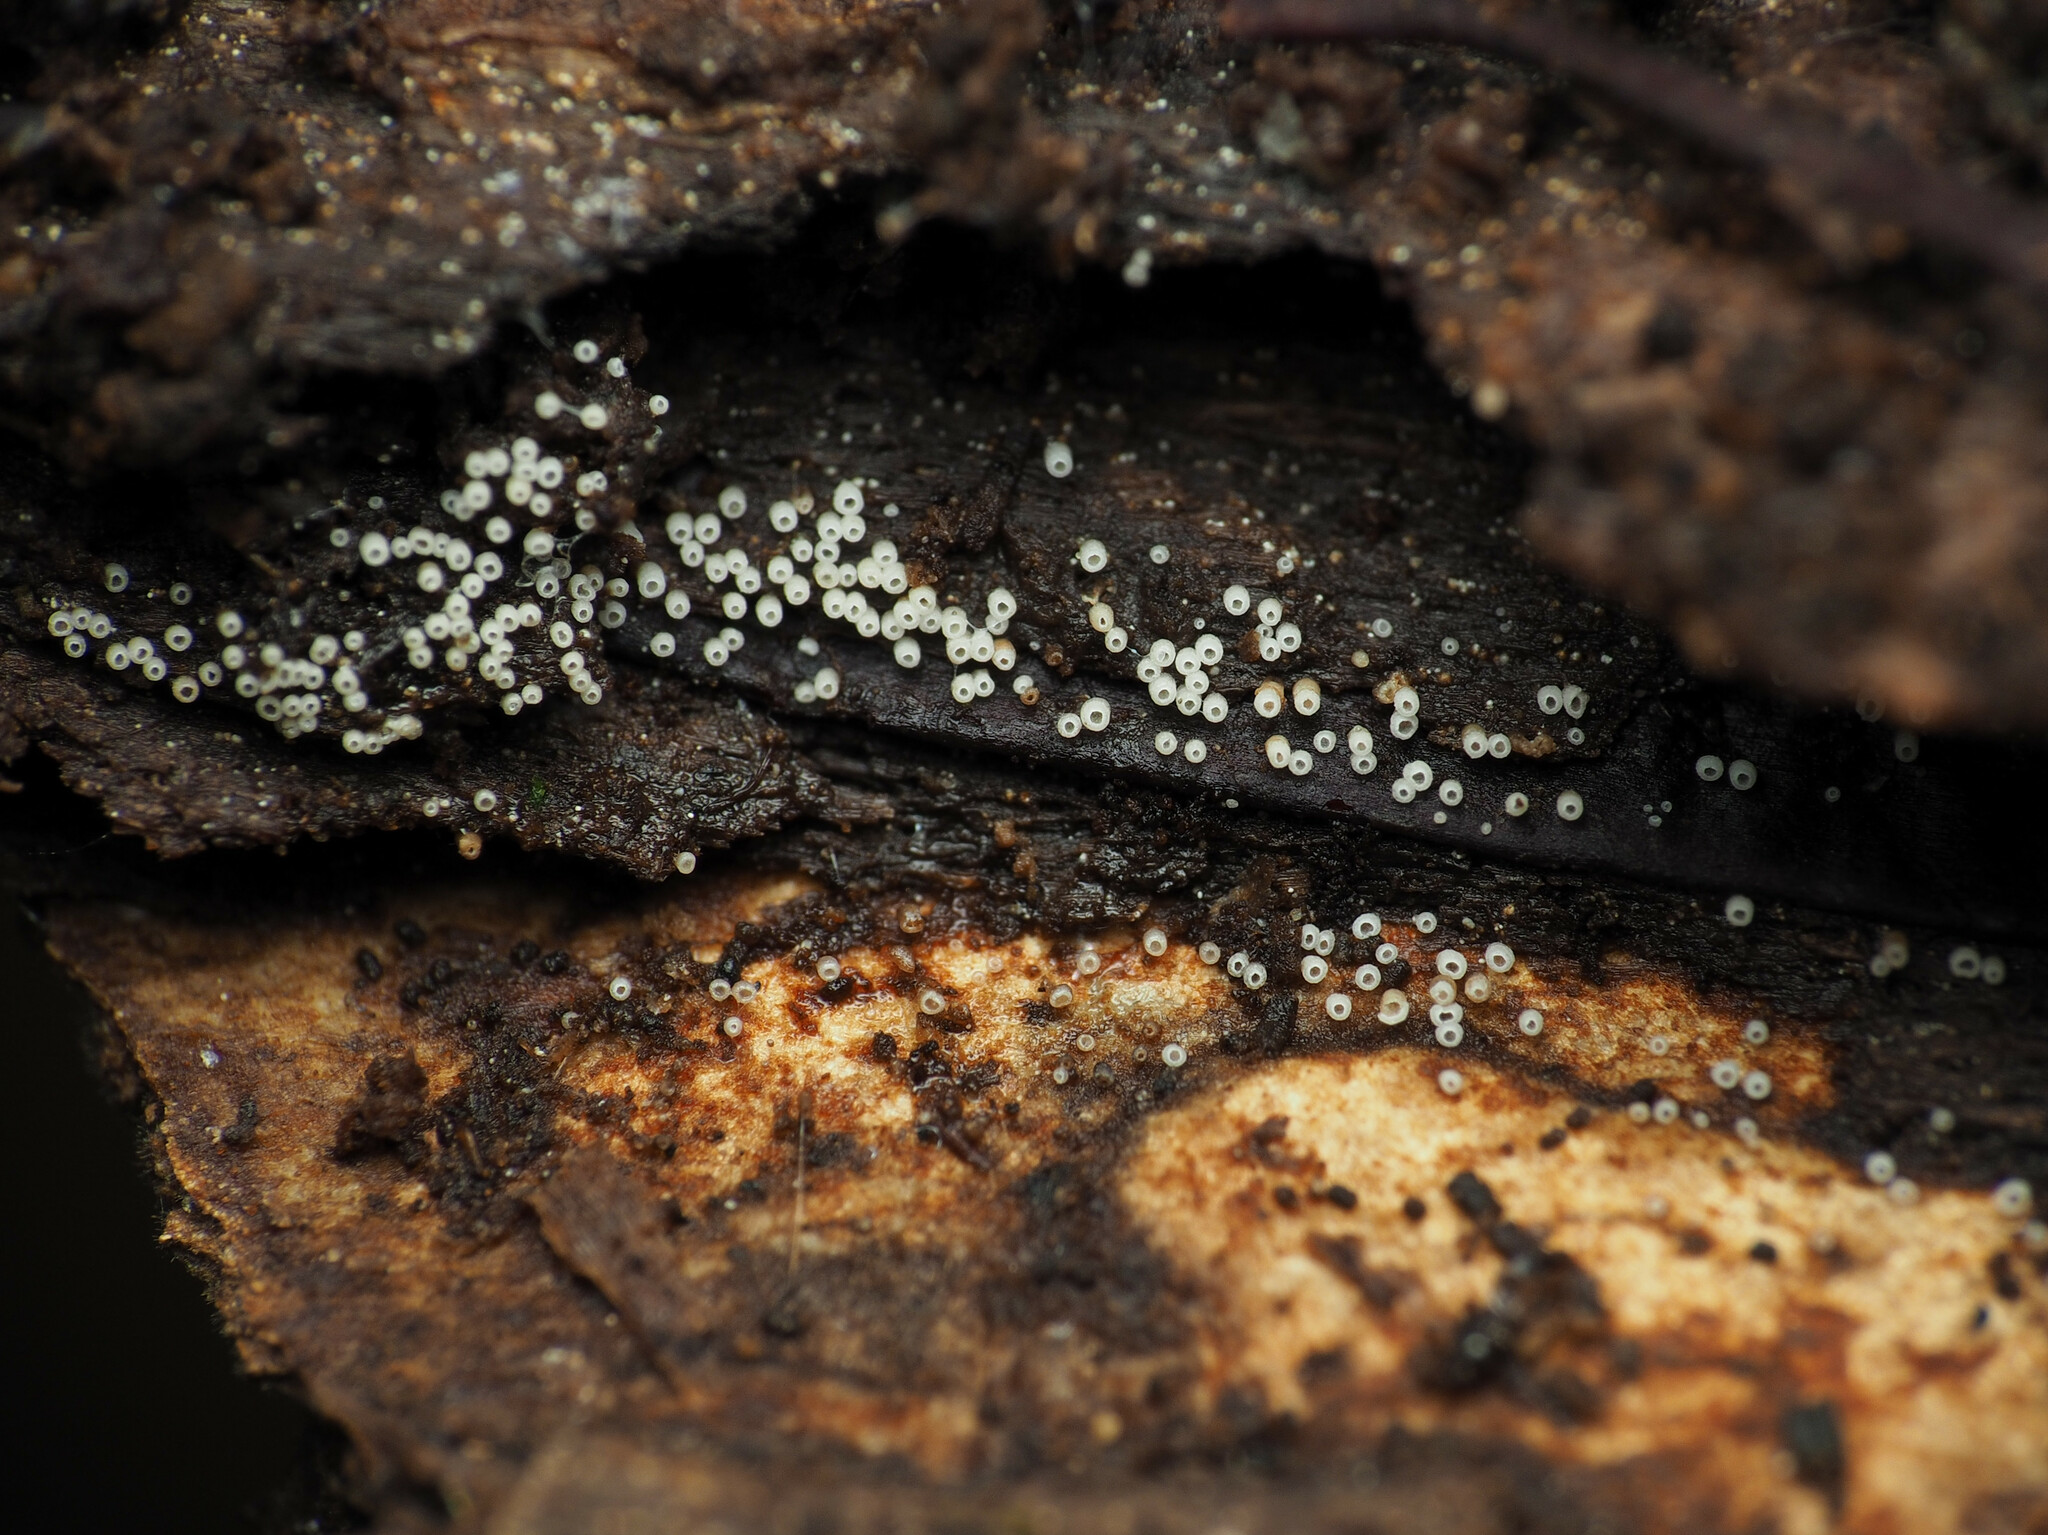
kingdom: Fungi
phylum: Basidiomycota
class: Agaricomycetes
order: Agaricales
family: Marasmiaceae
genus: Henningsomyces
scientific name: Henningsomyces candidus
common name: White tubelet
